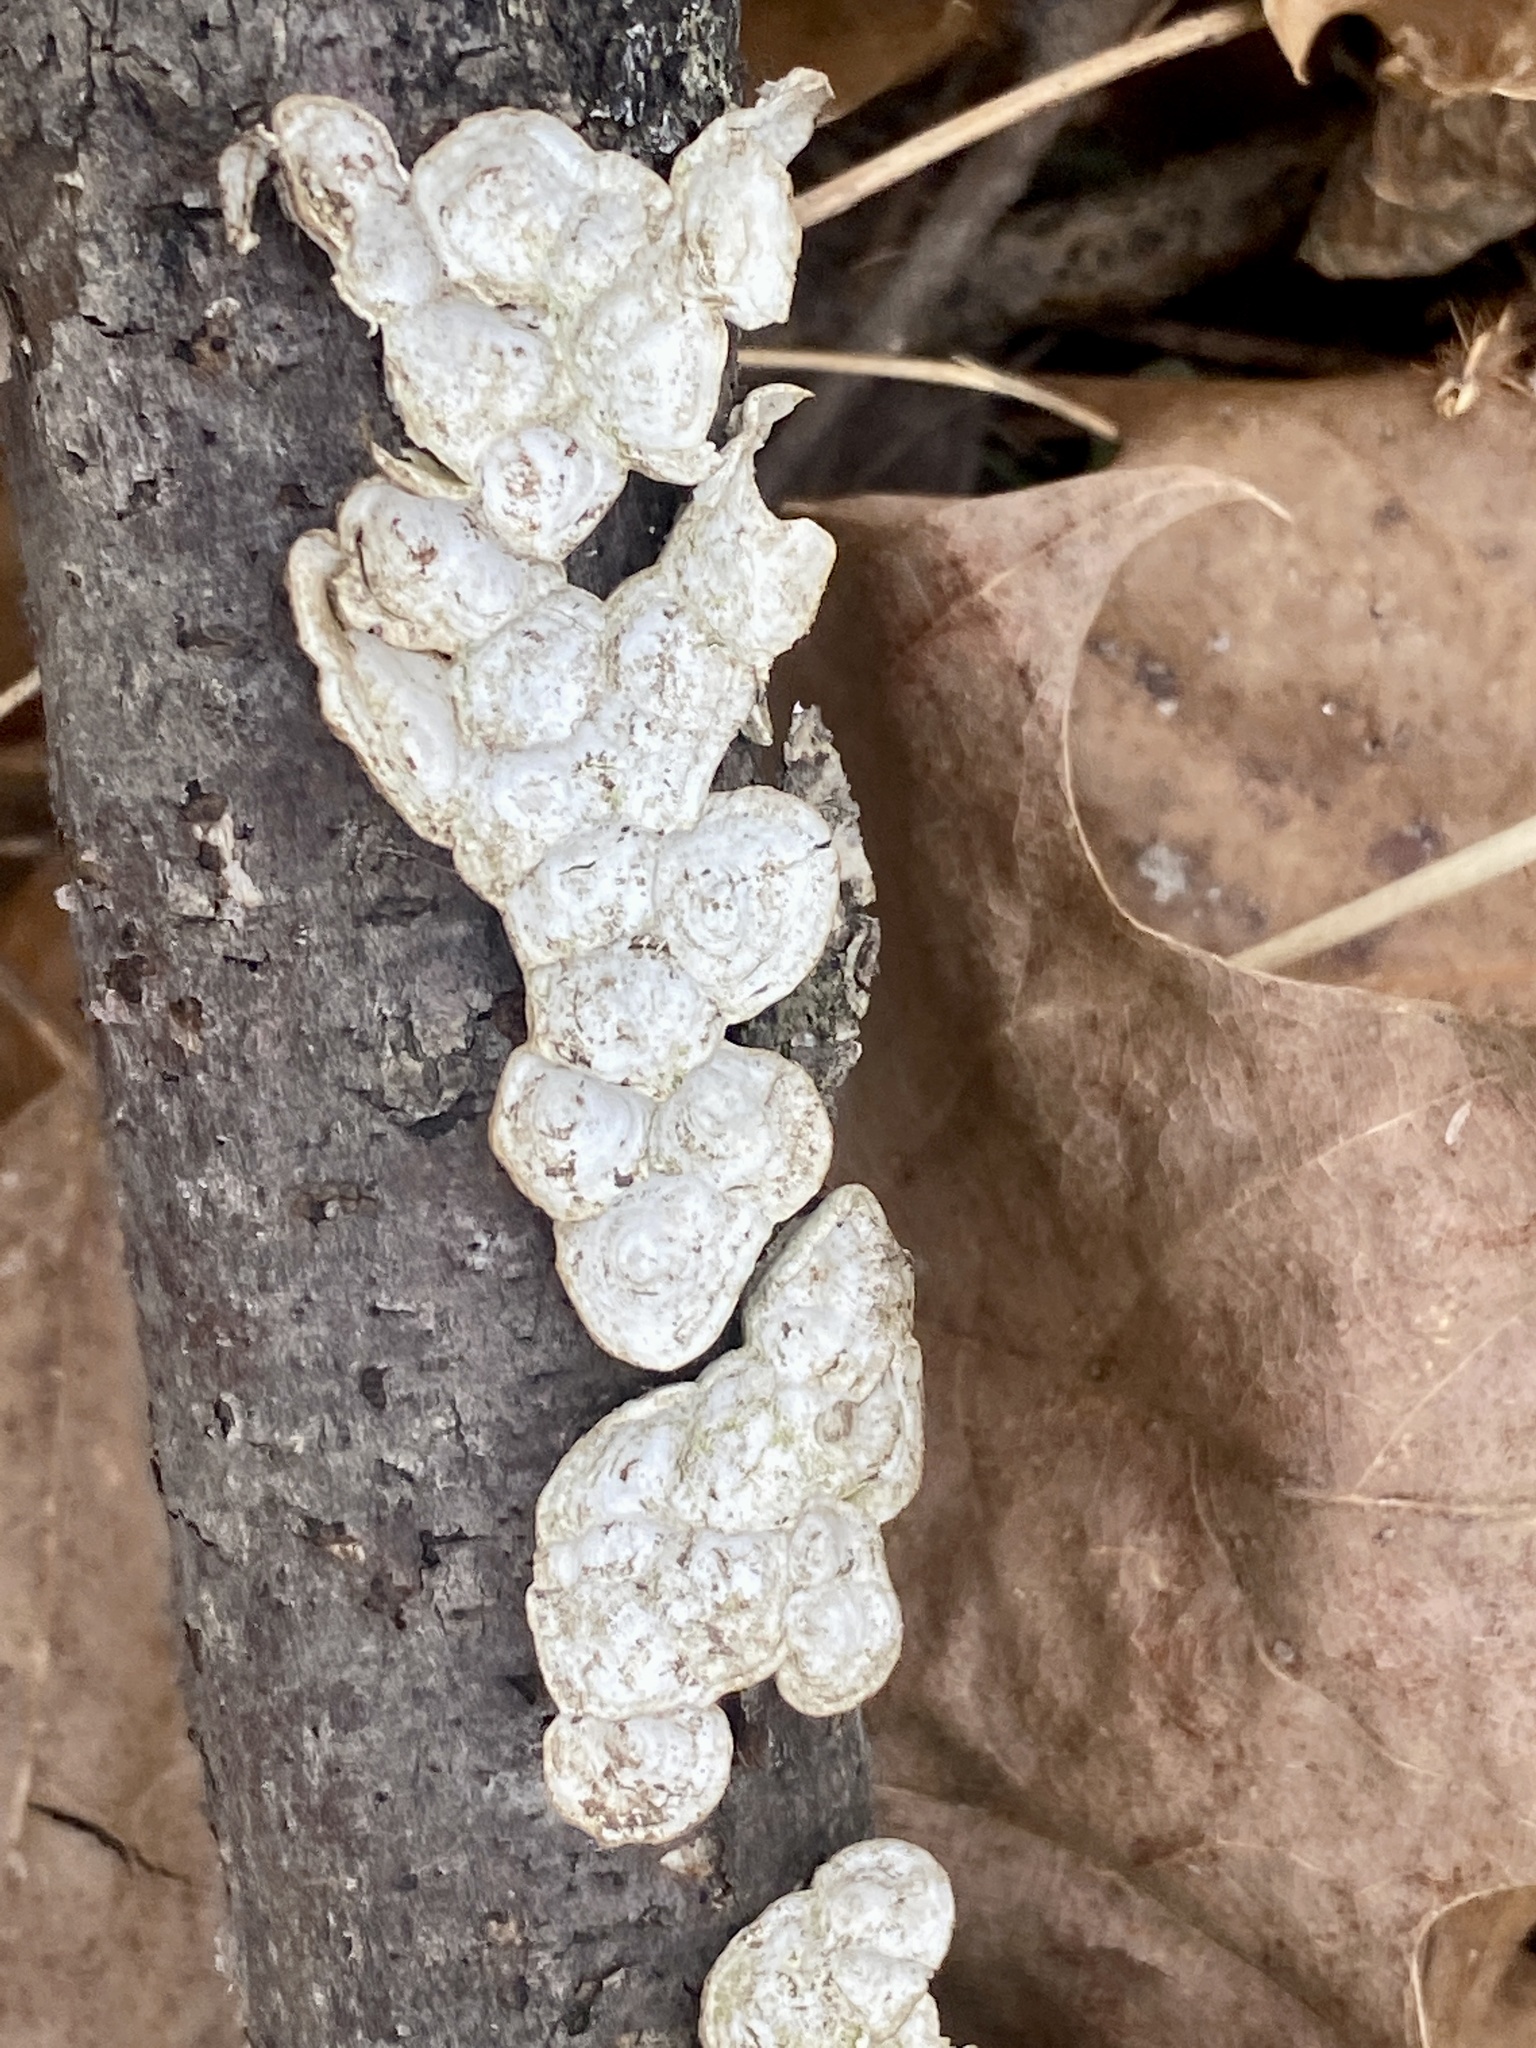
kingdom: Fungi
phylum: Basidiomycota
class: Agaricomycetes
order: Polyporales
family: Polyporaceae
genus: Poronidulus
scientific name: Poronidulus conchifer
